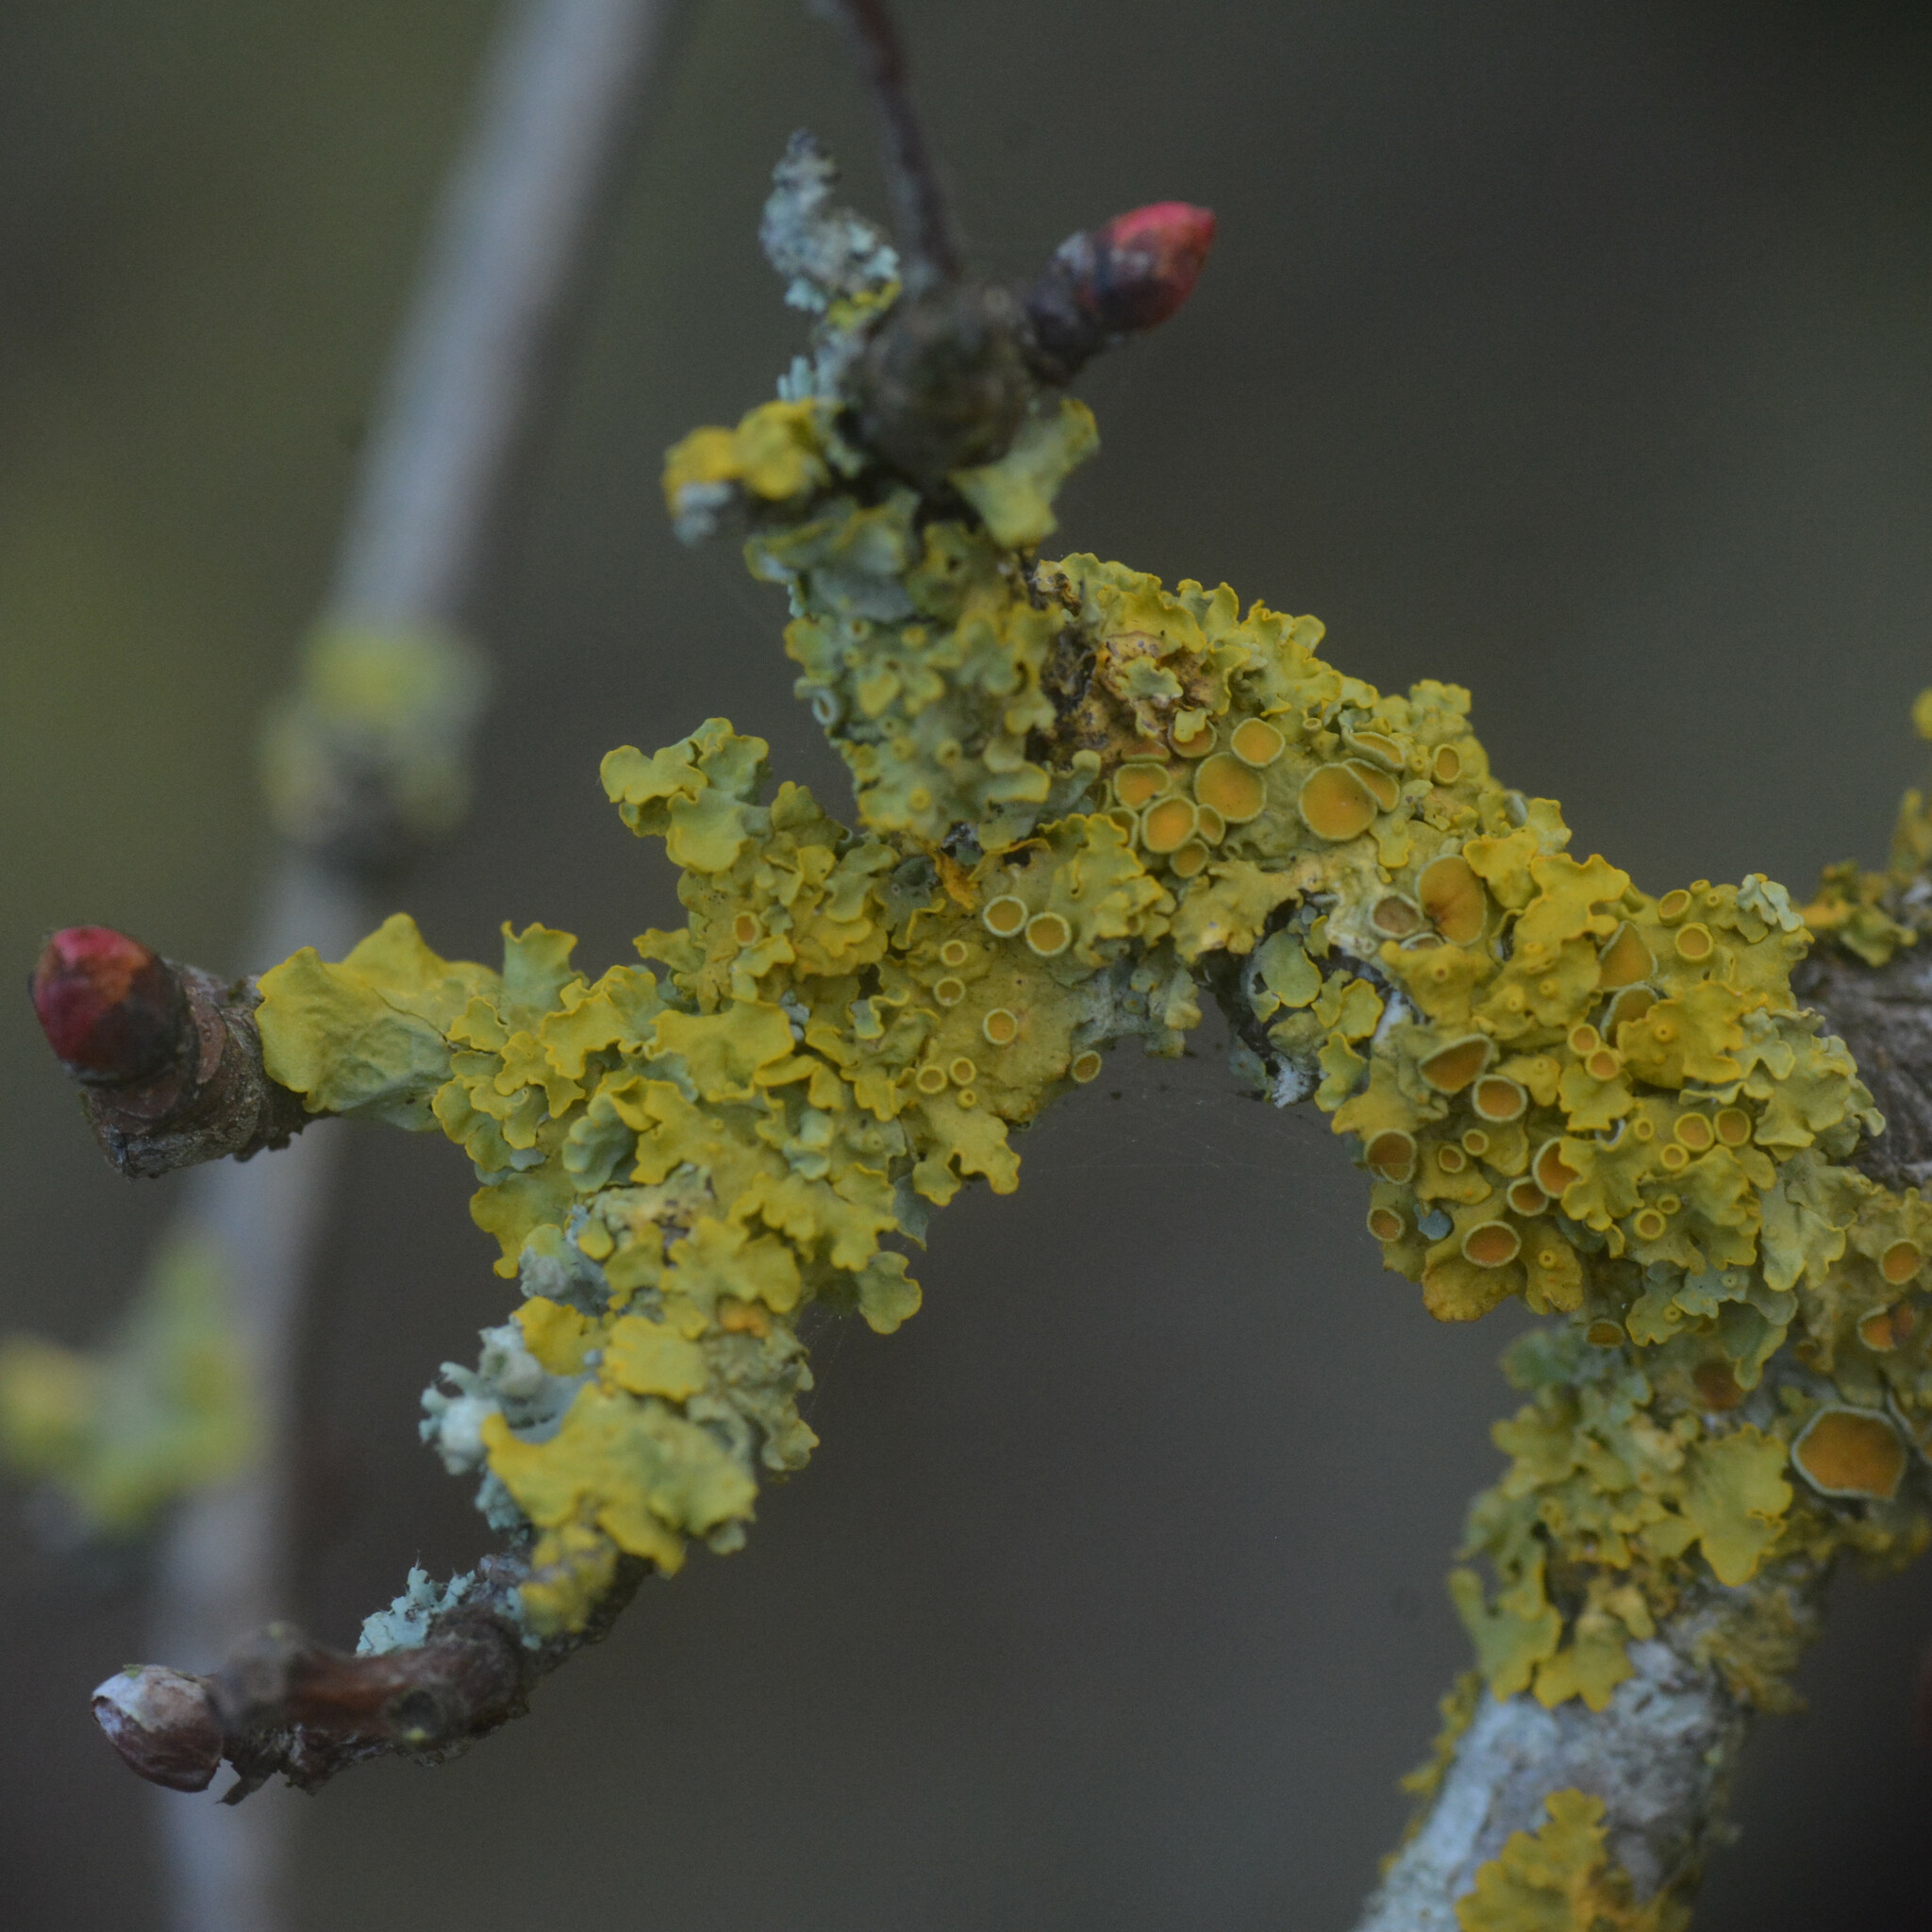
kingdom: Fungi
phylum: Ascomycota
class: Lecanoromycetes
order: Teloschistales
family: Teloschistaceae
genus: Xanthoria
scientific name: Xanthoria parietina
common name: Common orange lichen
